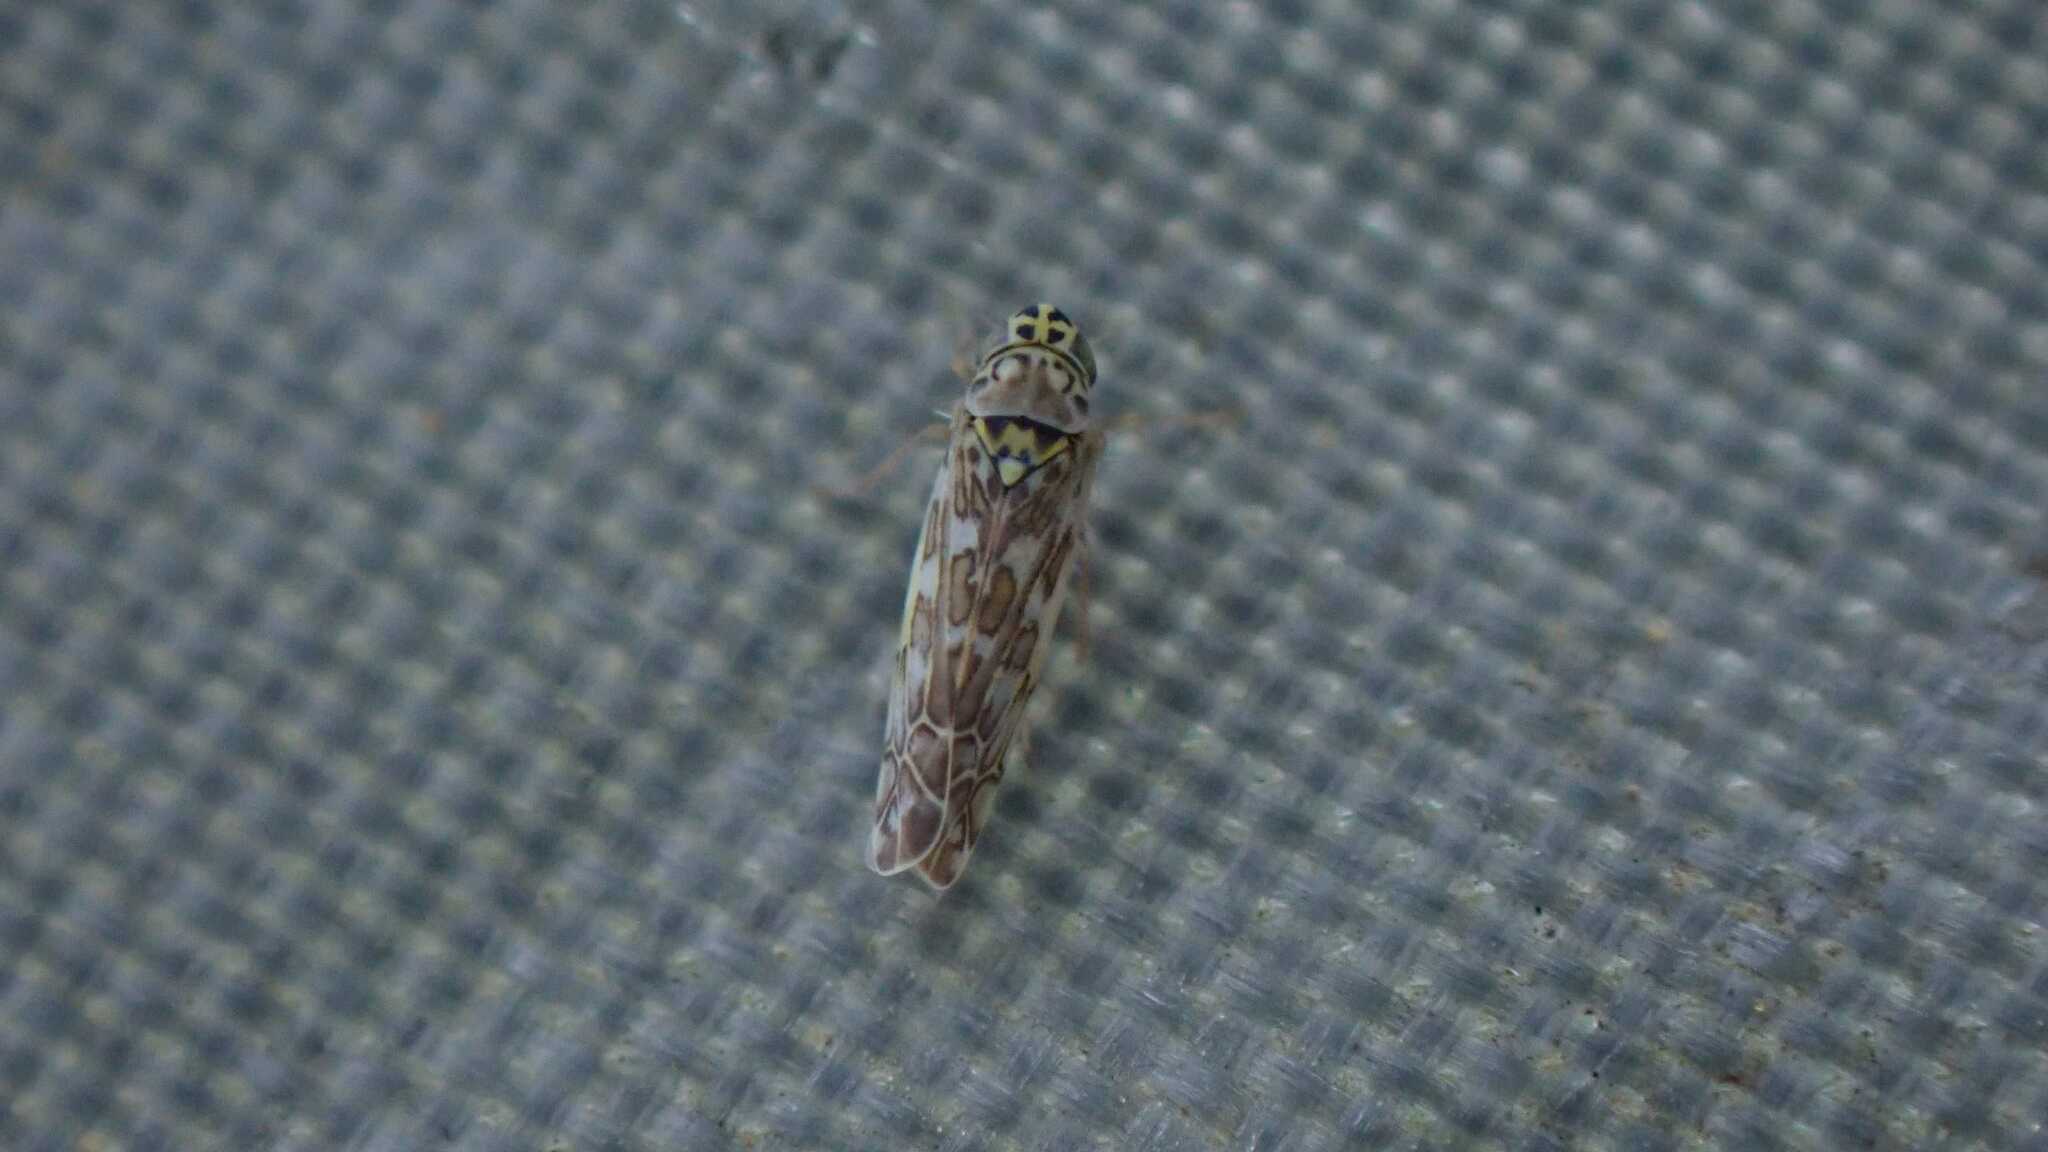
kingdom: Animalia
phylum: Arthropoda
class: Insecta
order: Hemiptera
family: Cicadellidae
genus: Eupteryx
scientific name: Eupteryx decemnotata
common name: Ligurian leafhopper
